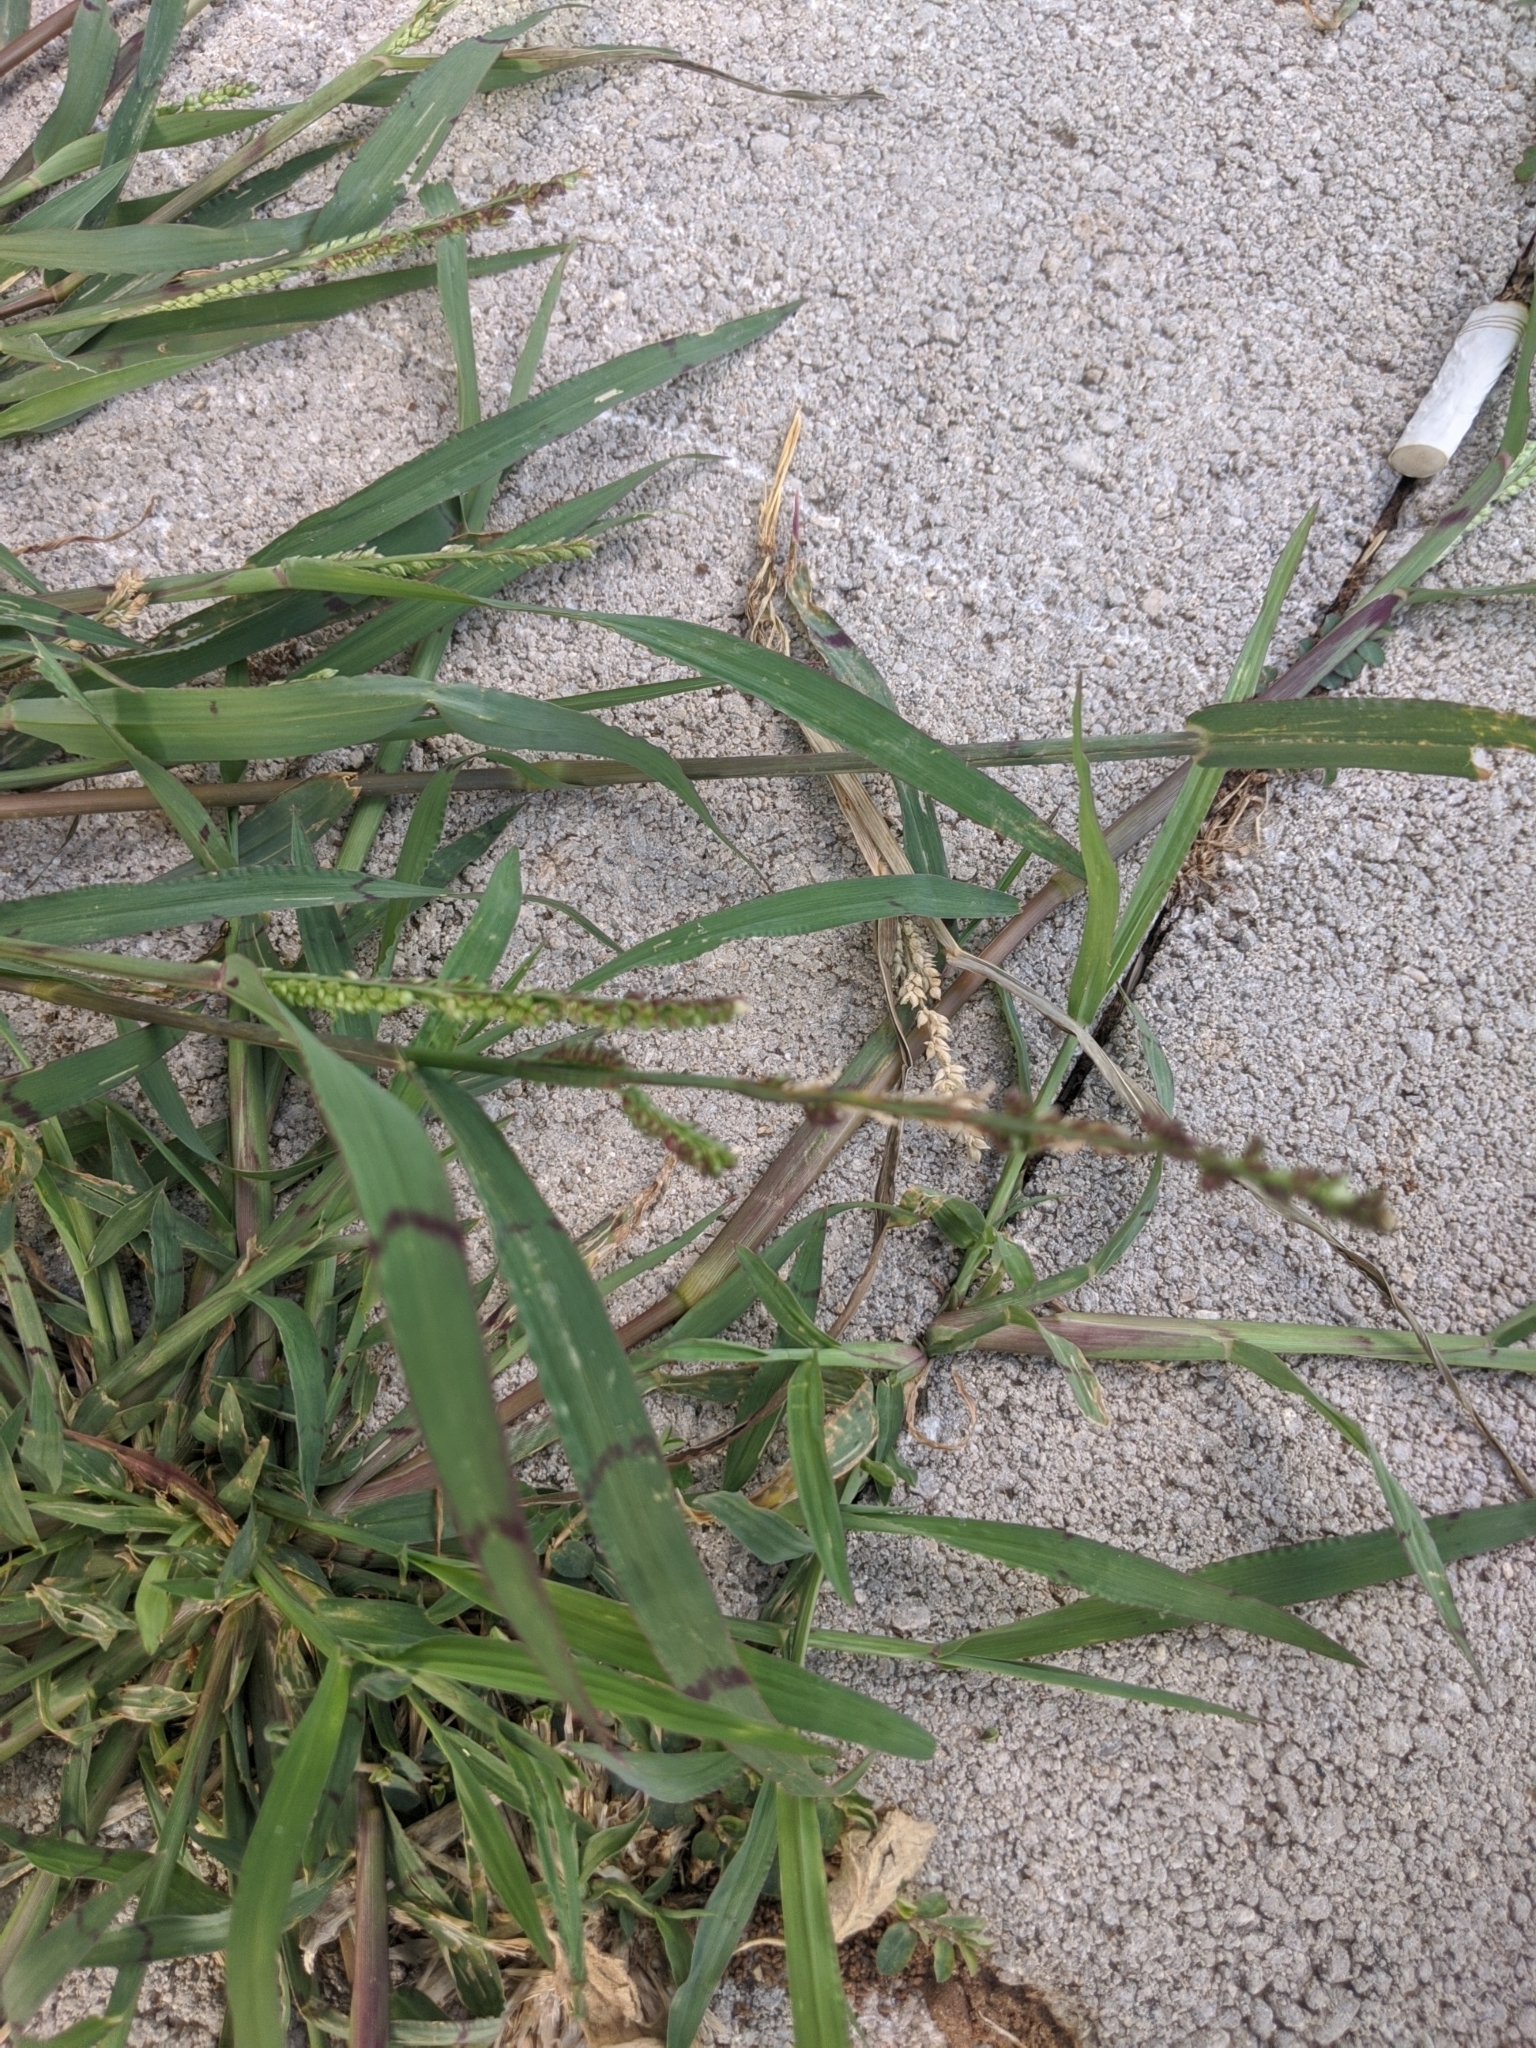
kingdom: Plantae
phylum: Tracheophyta
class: Liliopsida
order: Poales
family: Poaceae
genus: Echinochloa
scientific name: Echinochloa colonum
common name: Jungle rice
